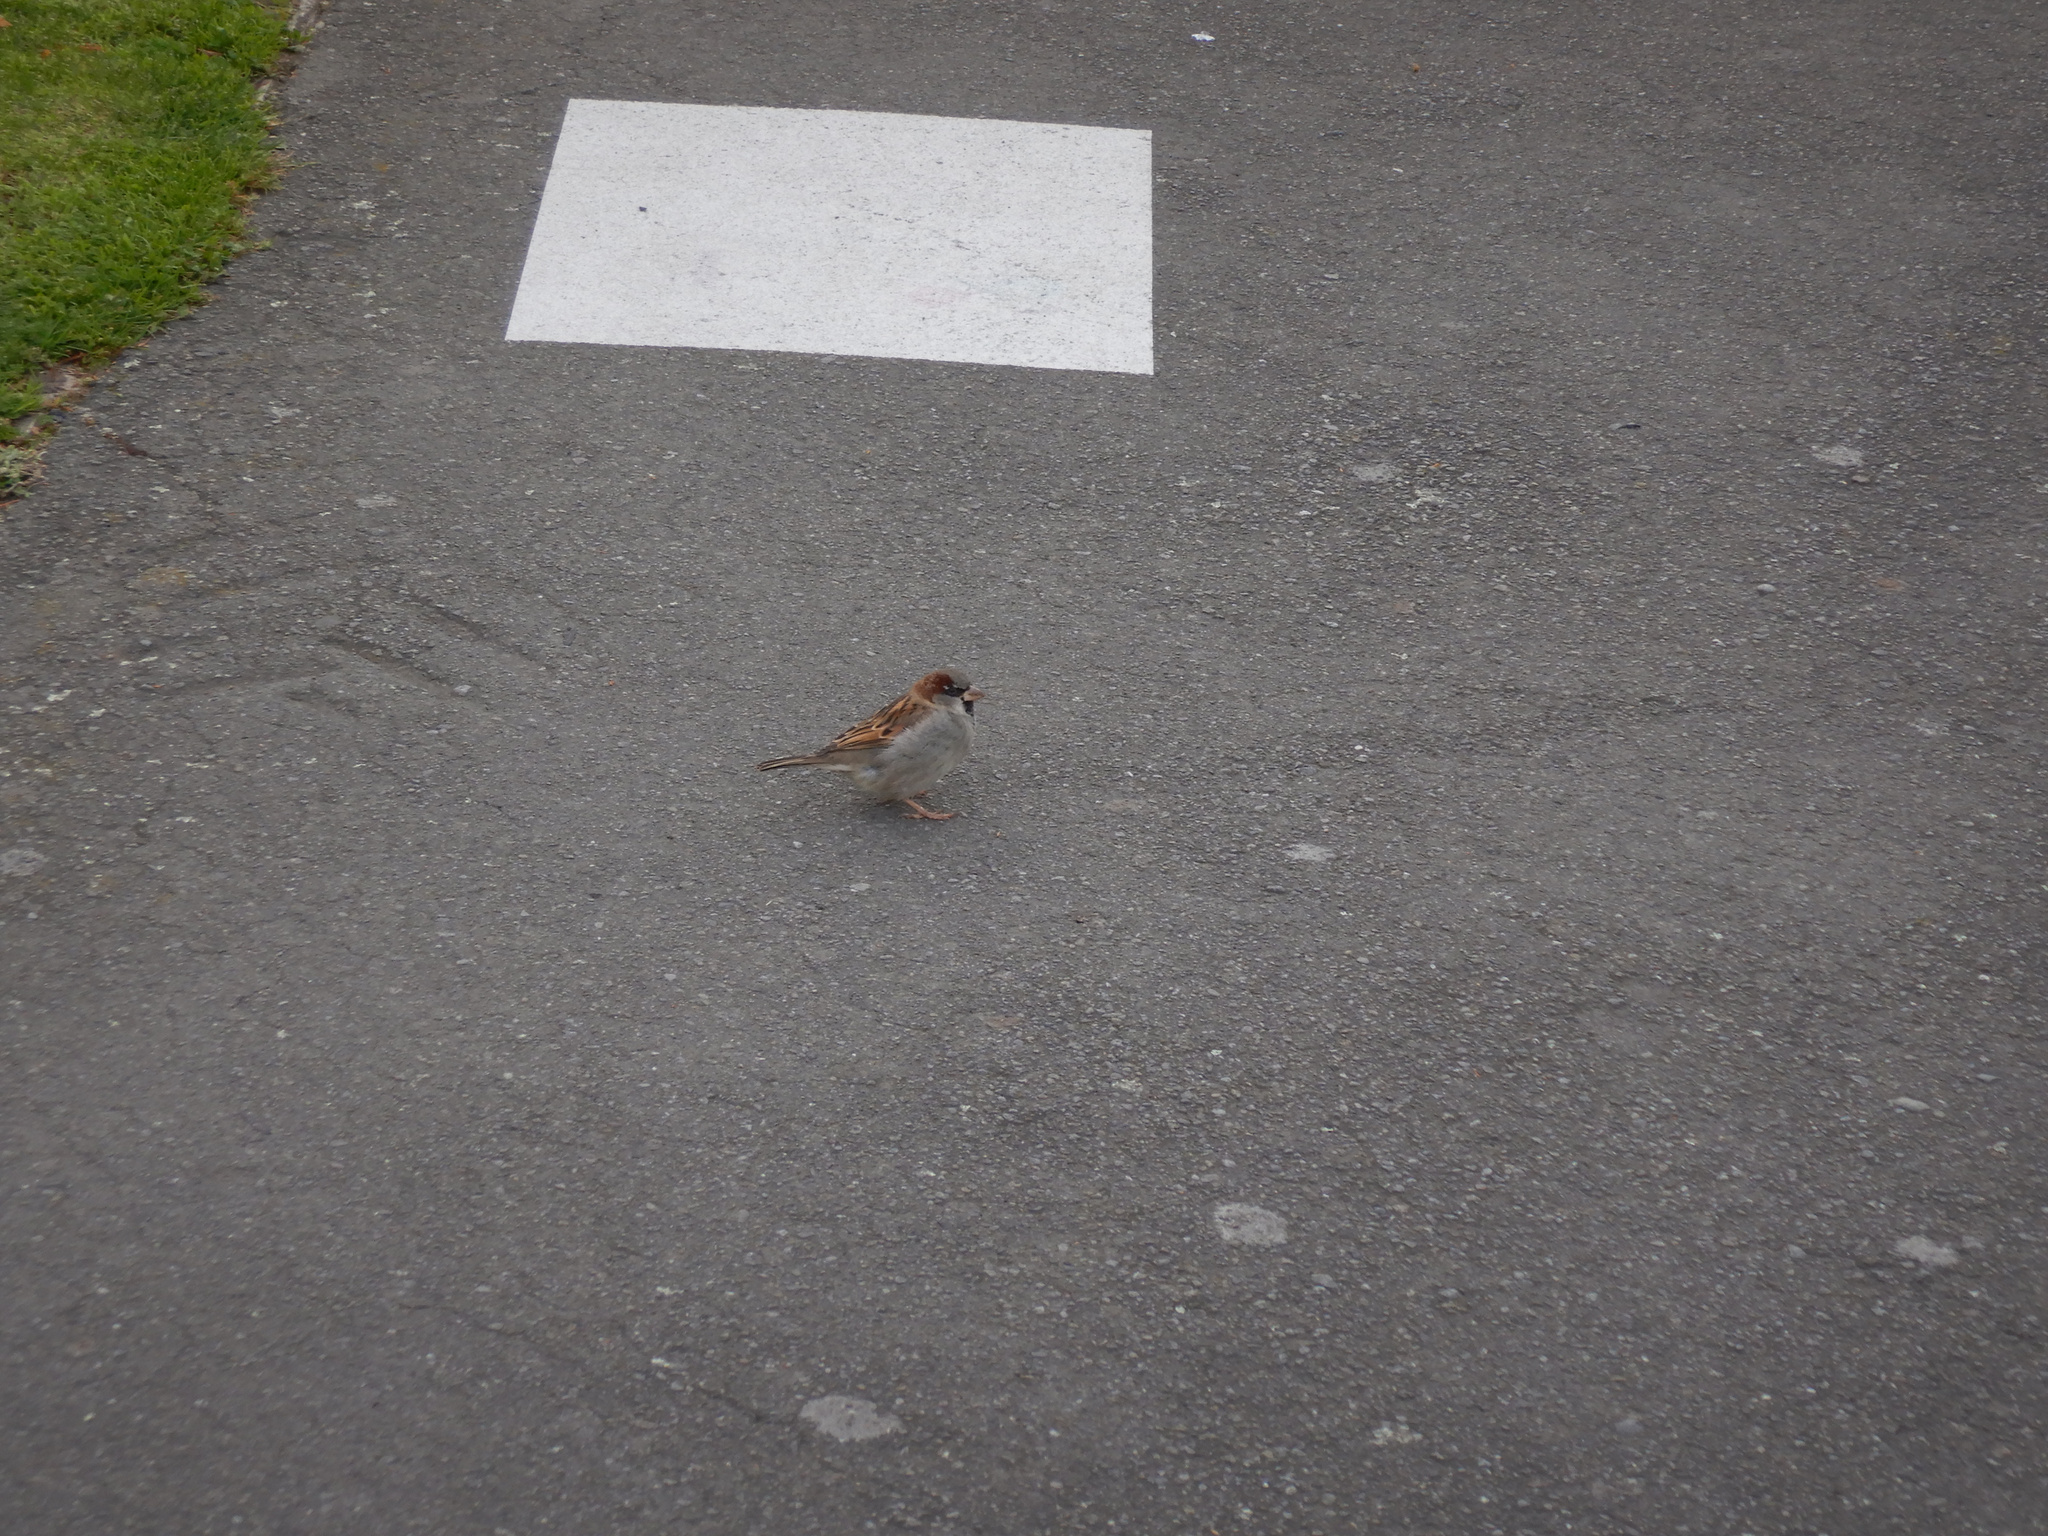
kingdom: Animalia
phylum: Chordata
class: Aves
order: Passeriformes
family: Passeridae
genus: Passer
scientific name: Passer domesticus
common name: House sparrow
